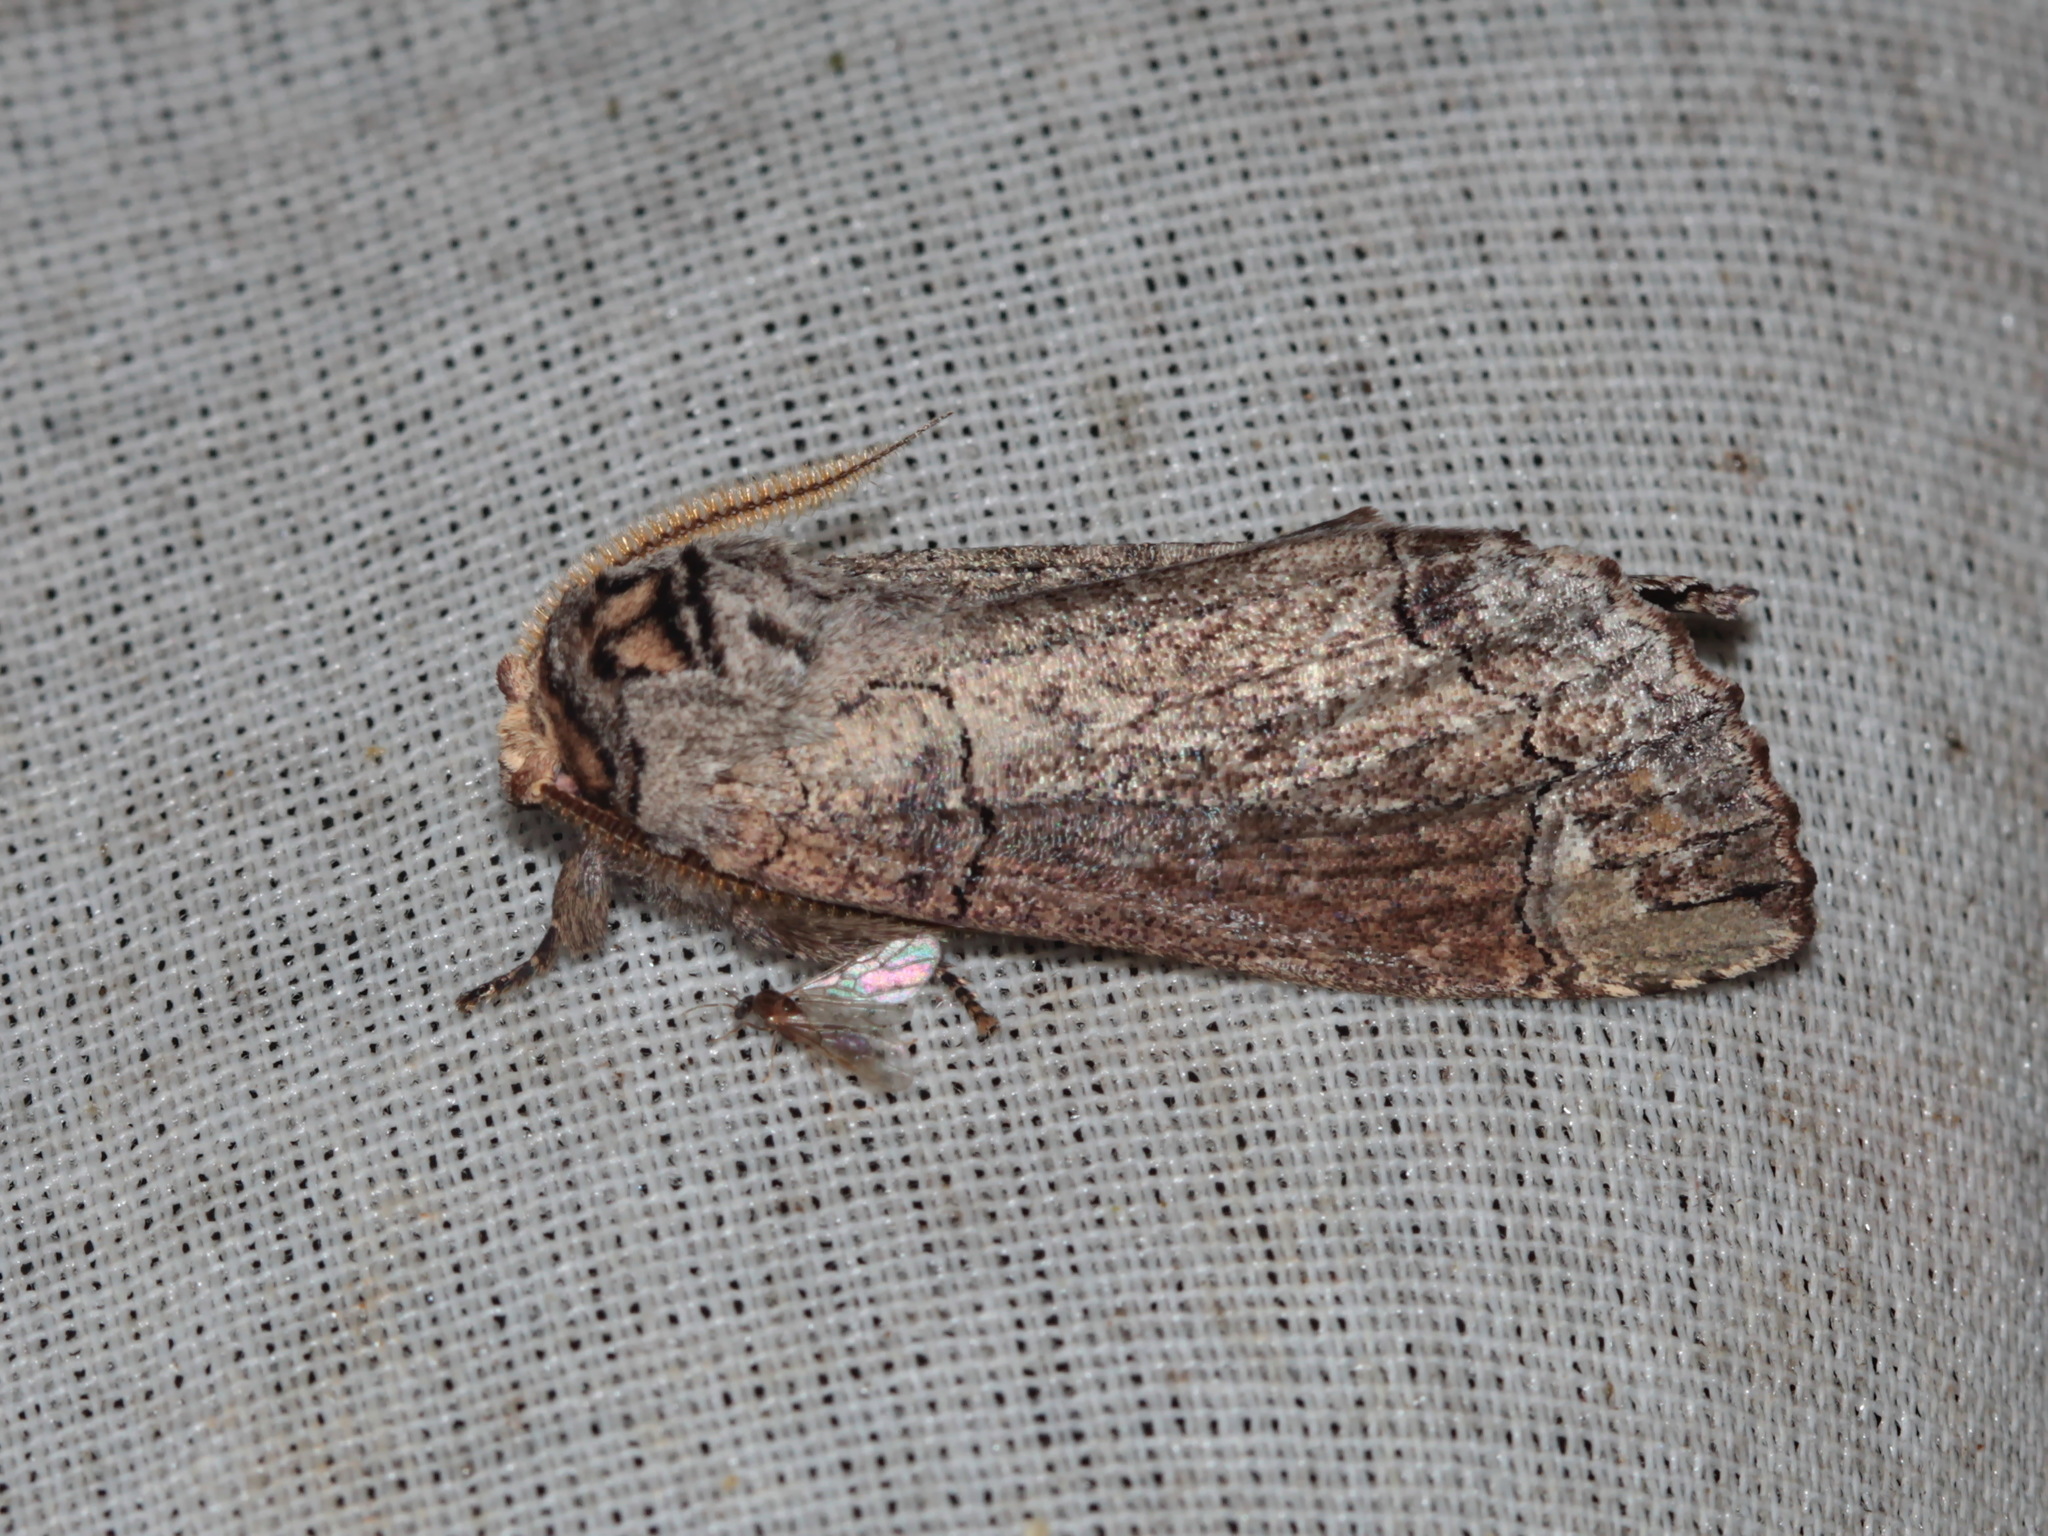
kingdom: Animalia
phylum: Arthropoda
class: Insecta
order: Lepidoptera
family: Notodontidae
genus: Phalera
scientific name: Phalera torpida
